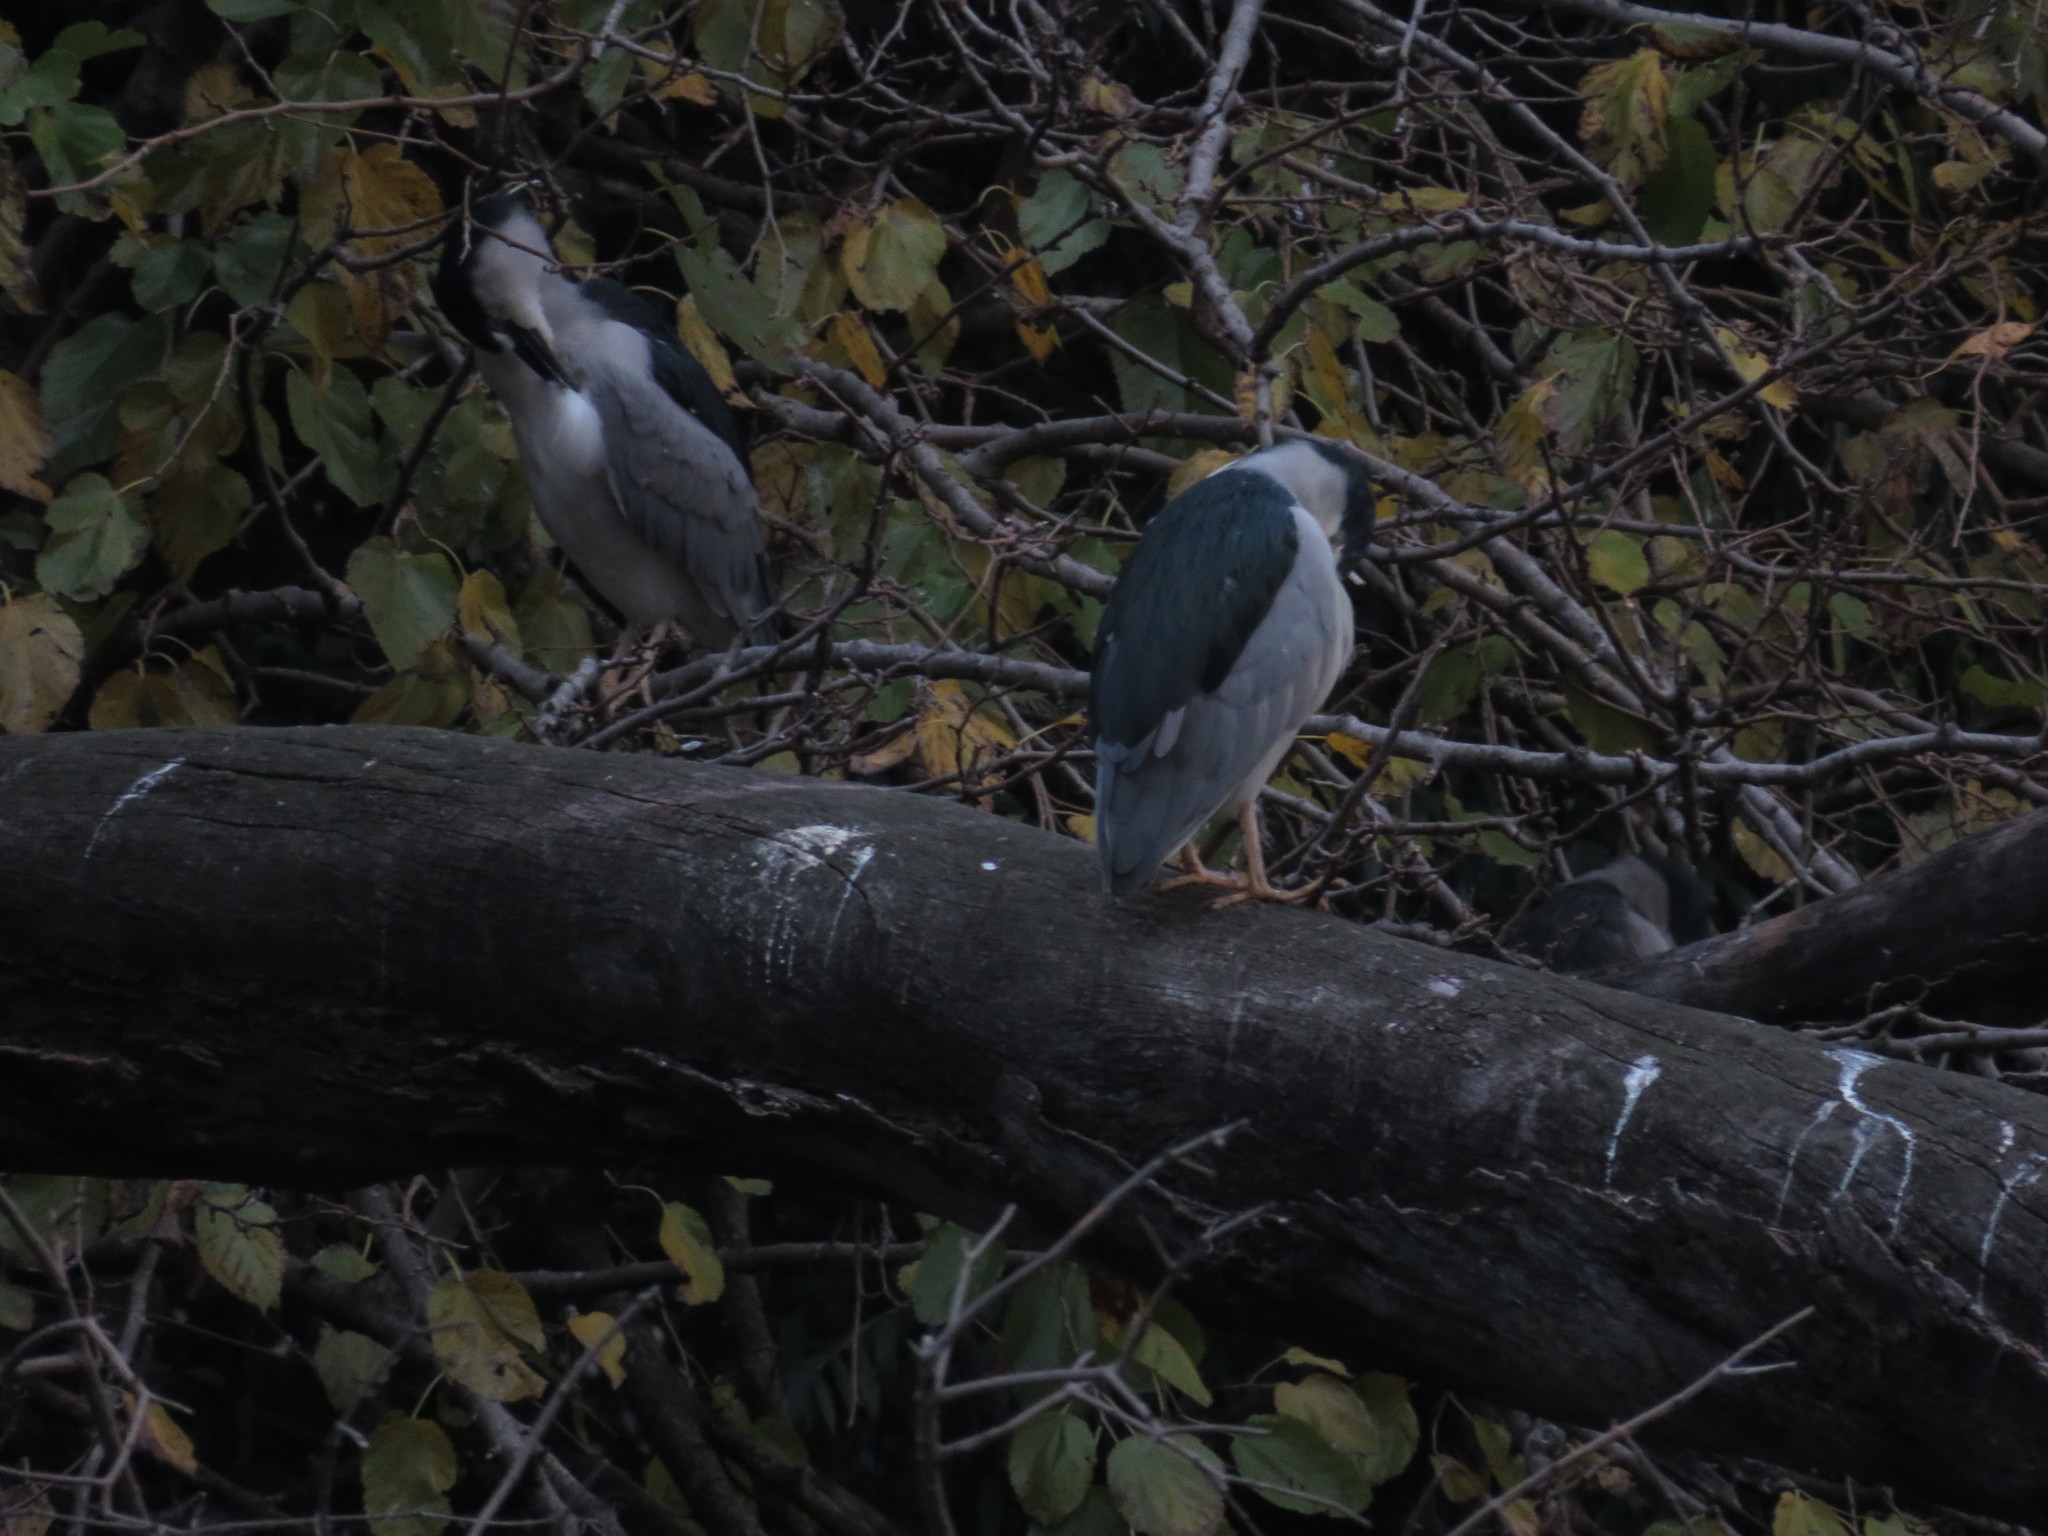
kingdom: Animalia
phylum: Chordata
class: Aves
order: Pelecaniformes
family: Ardeidae
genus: Nycticorax
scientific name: Nycticorax nycticorax
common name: Black-crowned night heron
